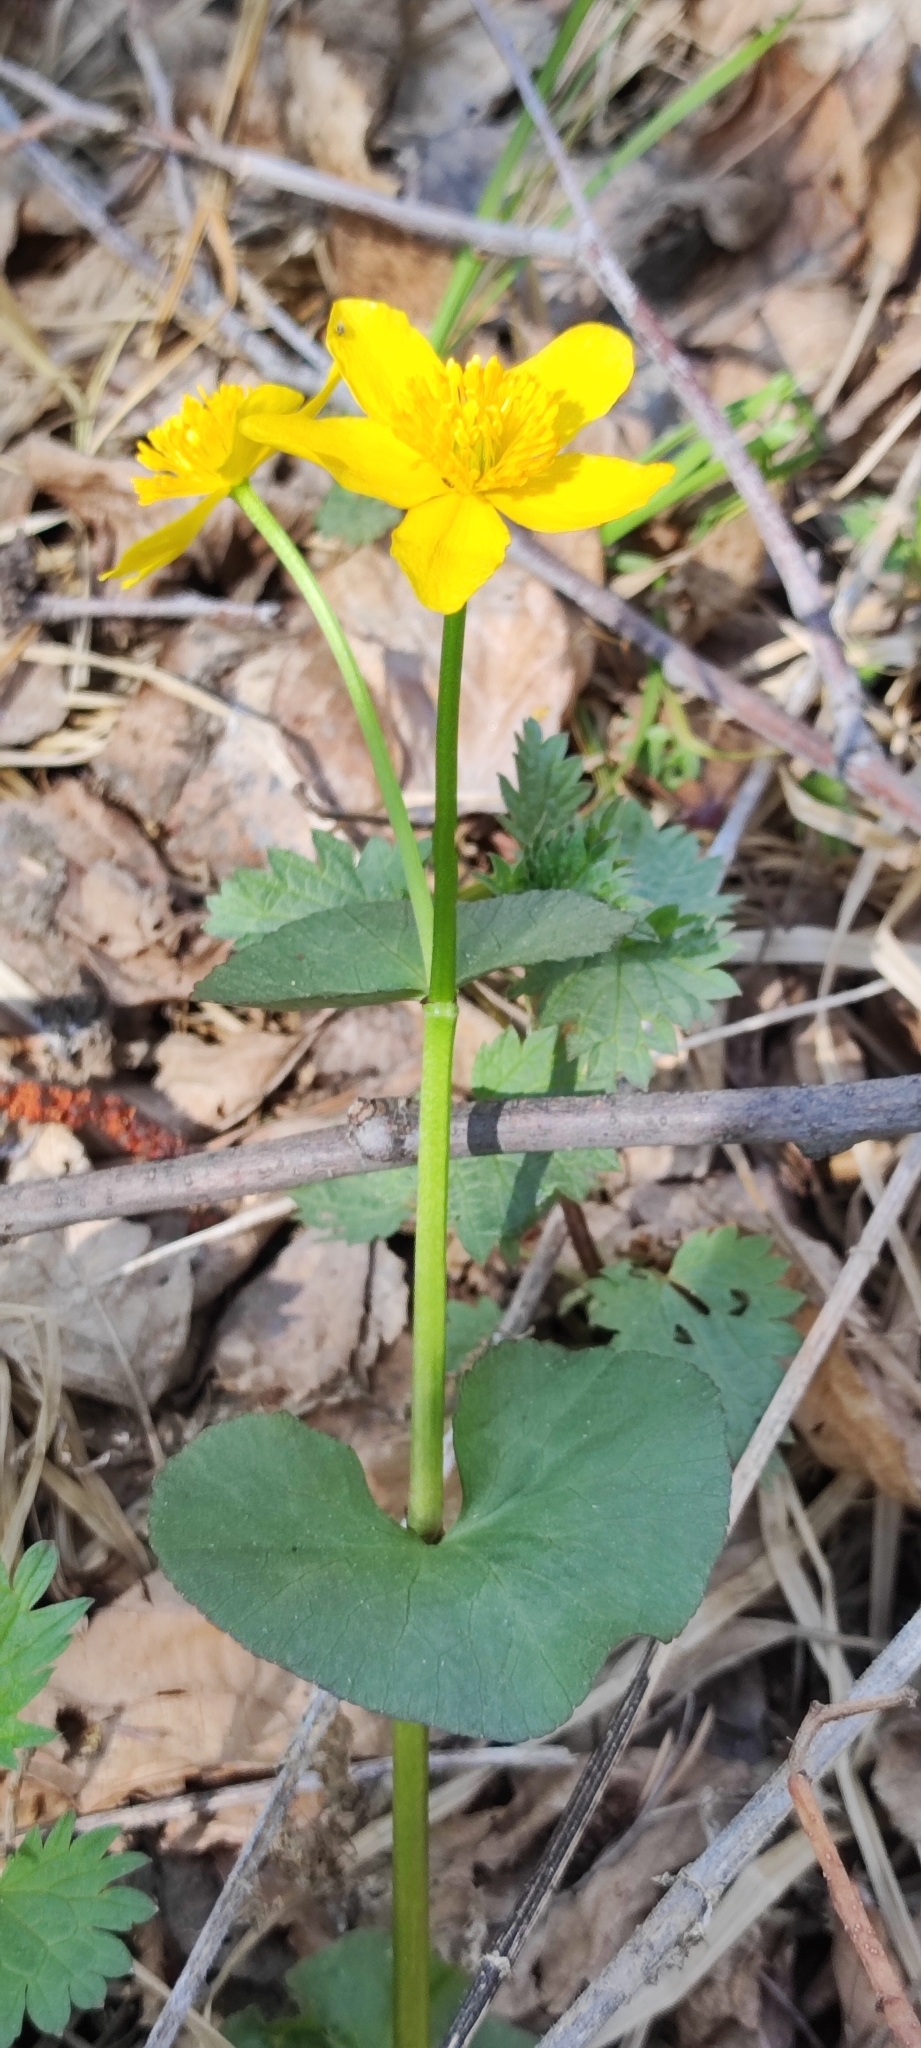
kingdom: Plantae
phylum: Tracheophyta
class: Magnoliopsida
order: Ranunculales
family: Ranunculaceae
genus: Caltha
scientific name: Caltha palustris
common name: Marsh marigold
